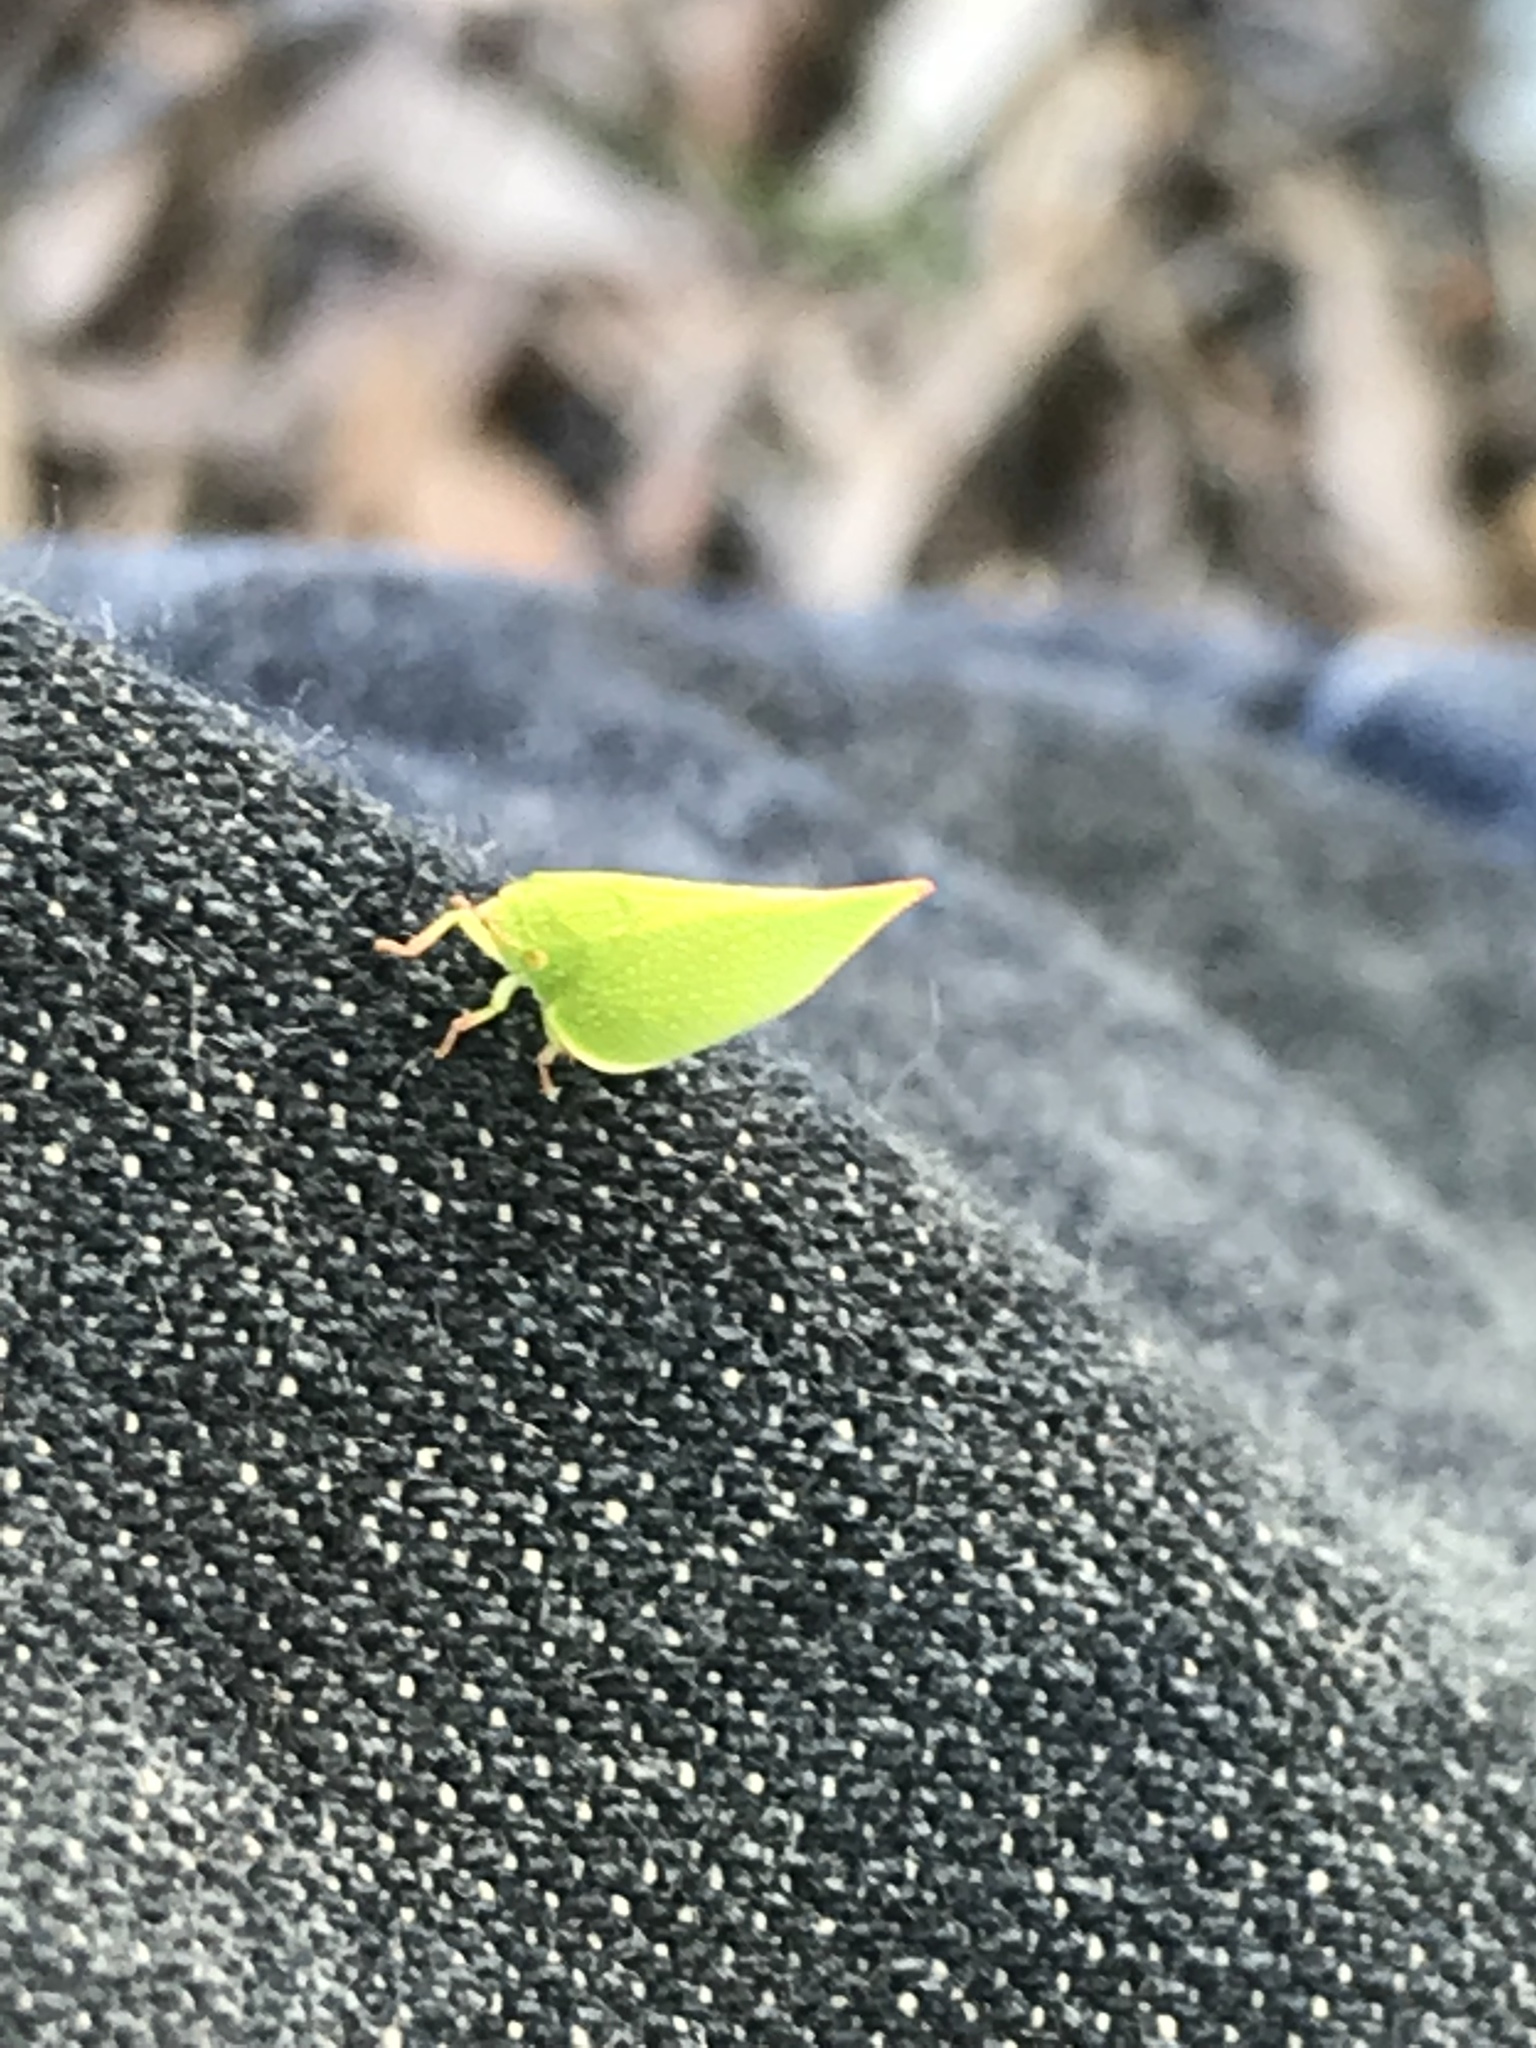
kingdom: Animalia
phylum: Arthropoda
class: Insecta
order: Hemiptera
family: Flatidae
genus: Siphanta
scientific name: Siphanta acuta
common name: Torpedo bug
